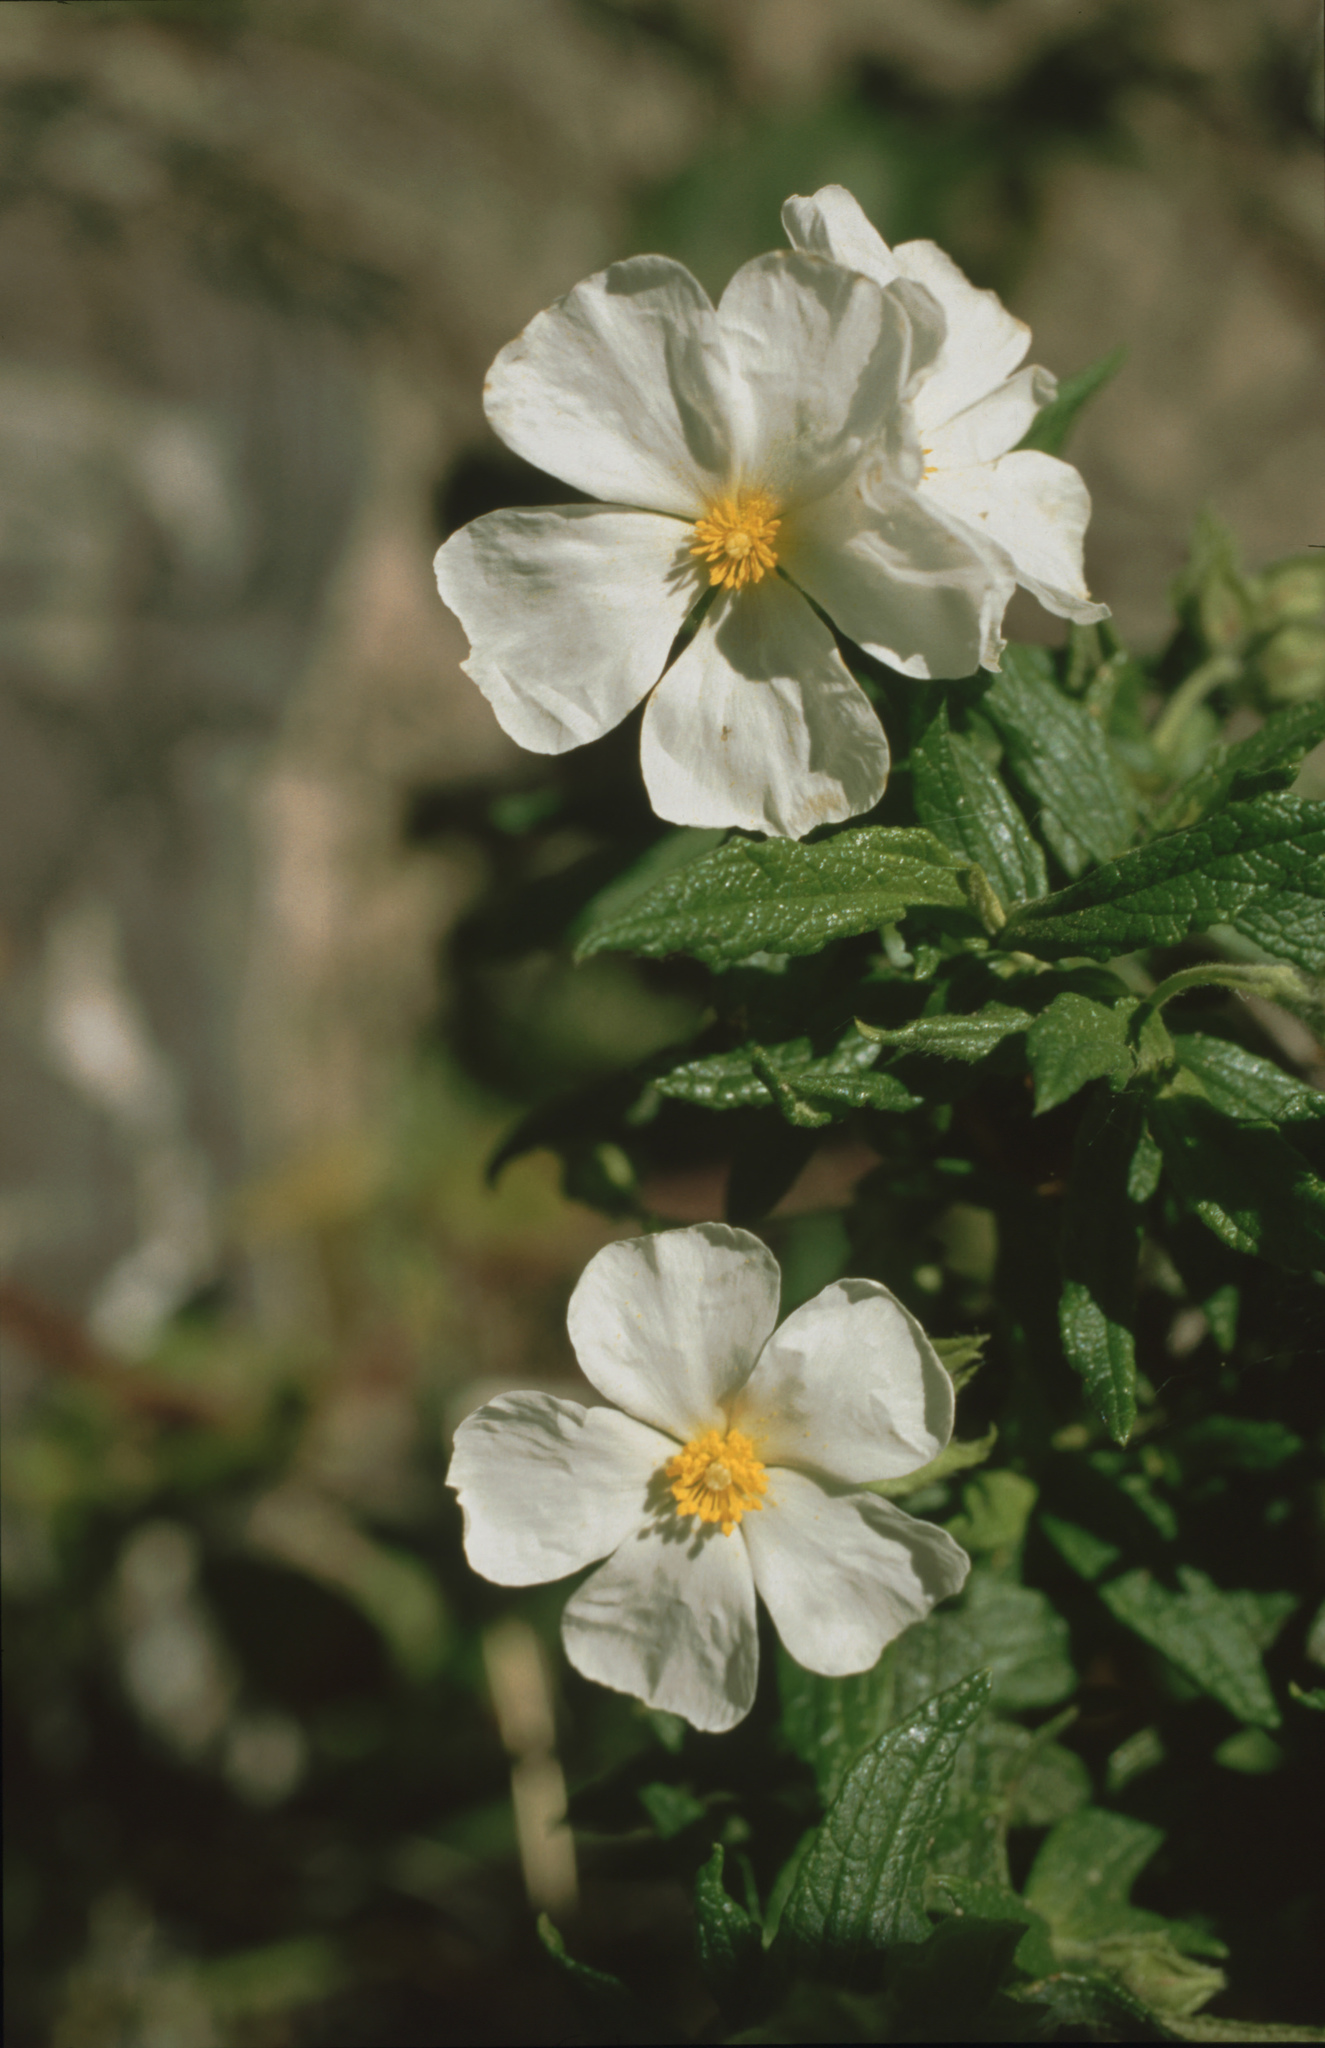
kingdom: Plantae
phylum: Tracheophyta
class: Magnoliopsida
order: Malvales
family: Cistaceae
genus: Cistus
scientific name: Cistus monspeliensis
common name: Montpelier cistus
